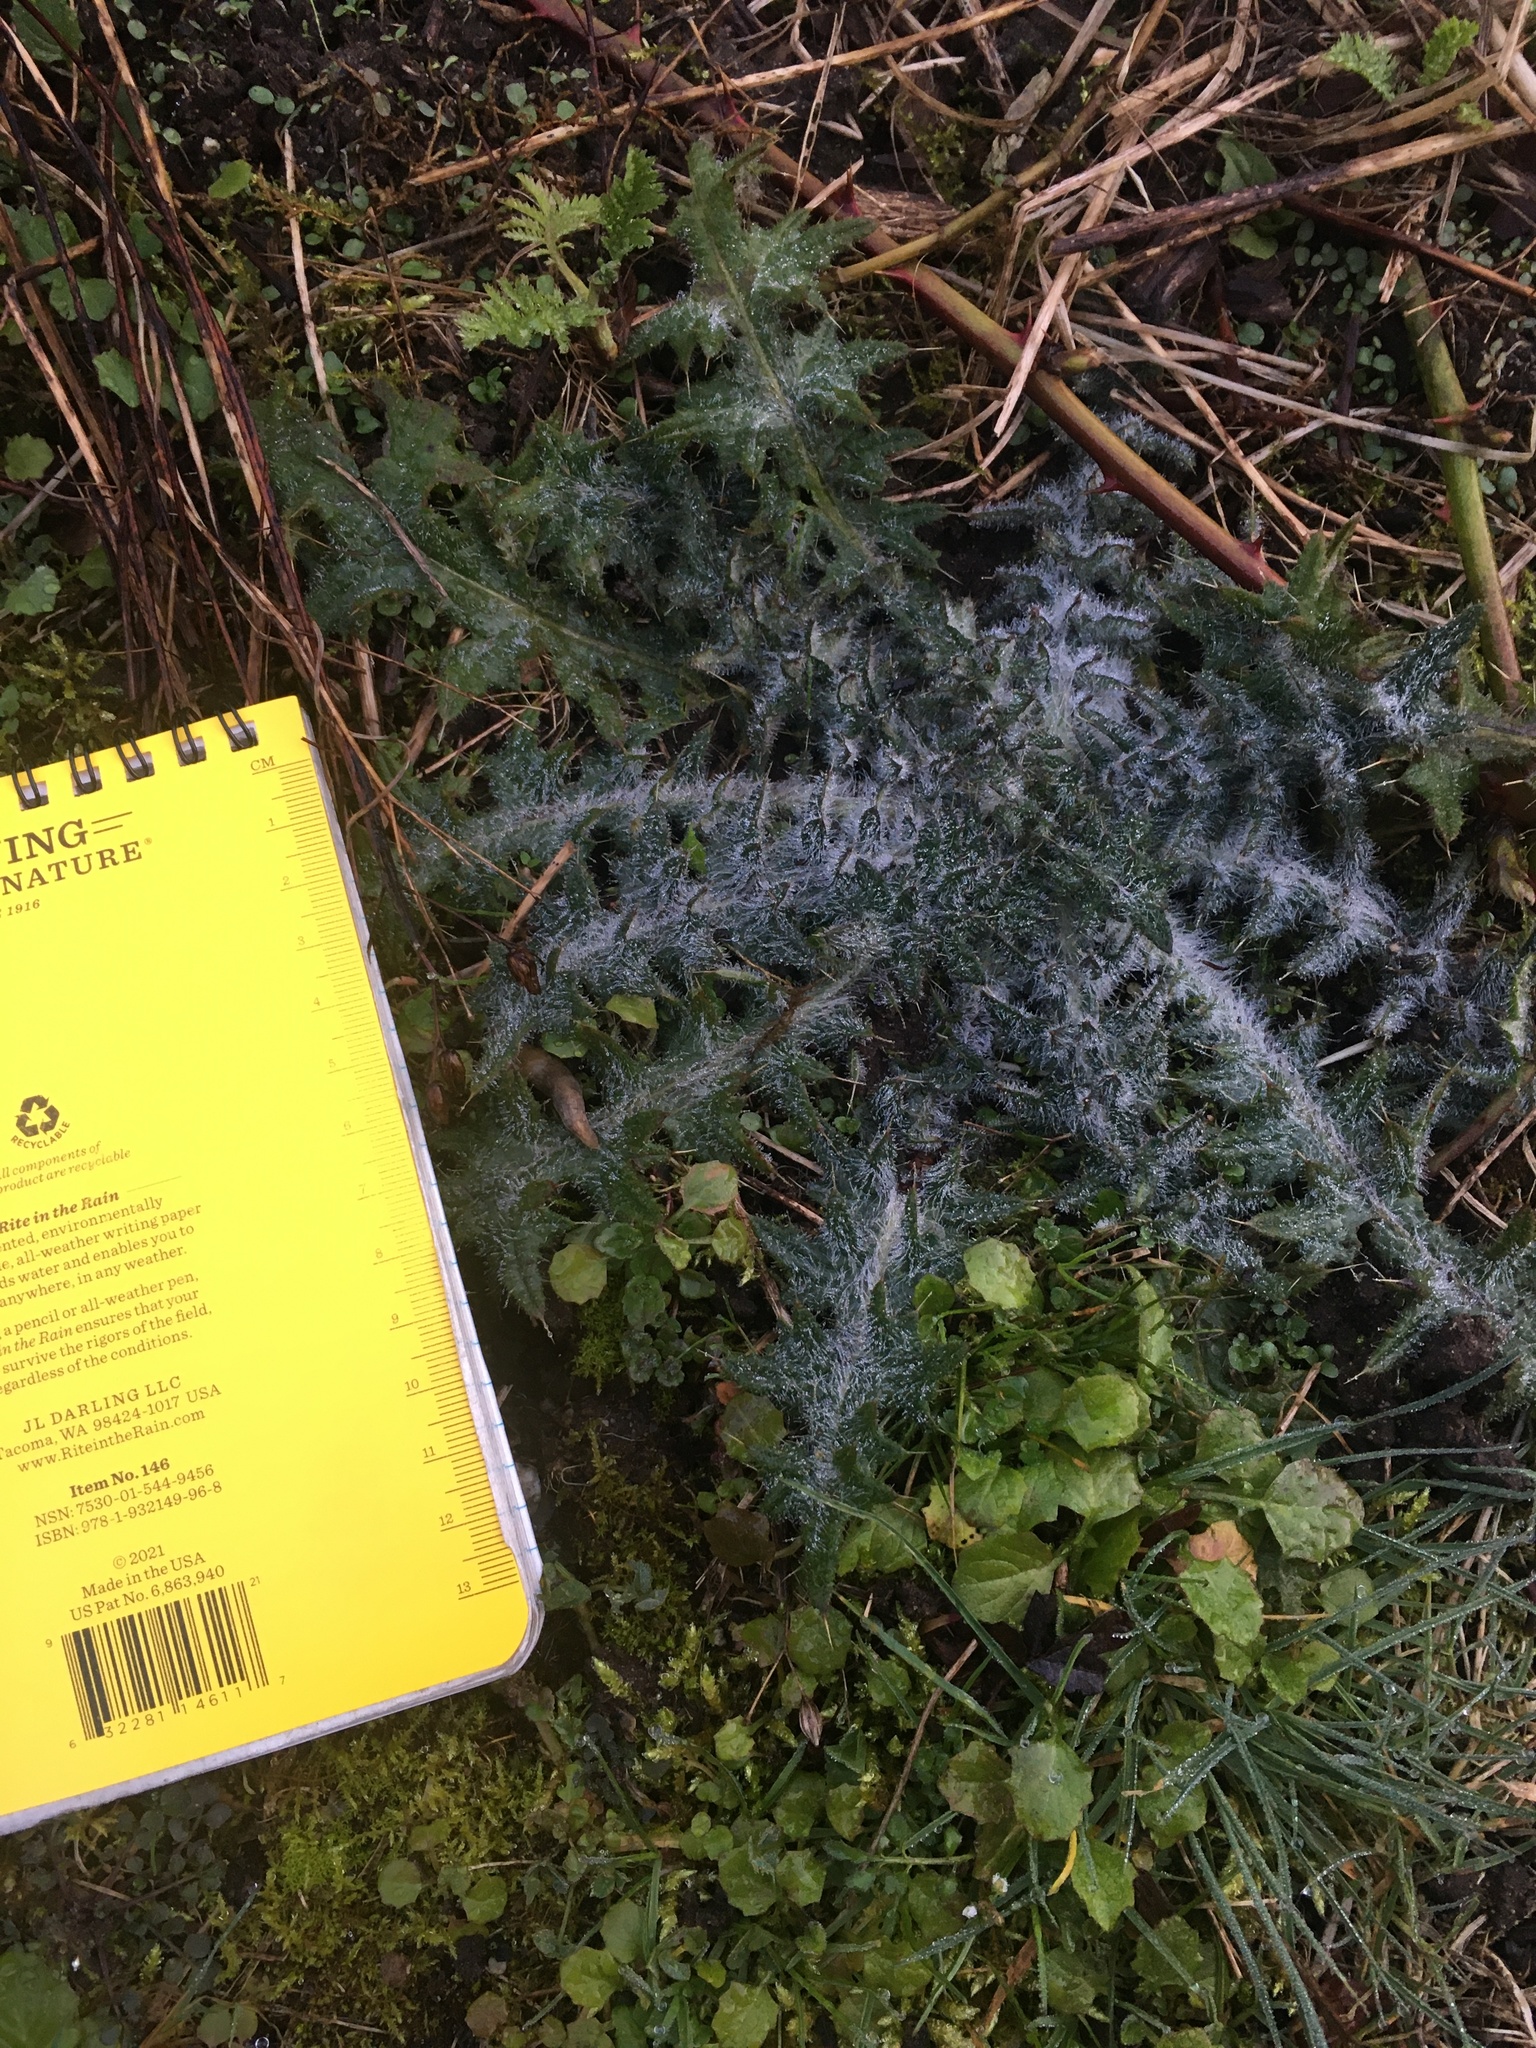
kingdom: Plantae
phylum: Tracheophyta
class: Magnoliopsida
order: Asterales
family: Asteraceae
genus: Cirsium
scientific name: Cirsium vulgare
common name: Bull thistle
